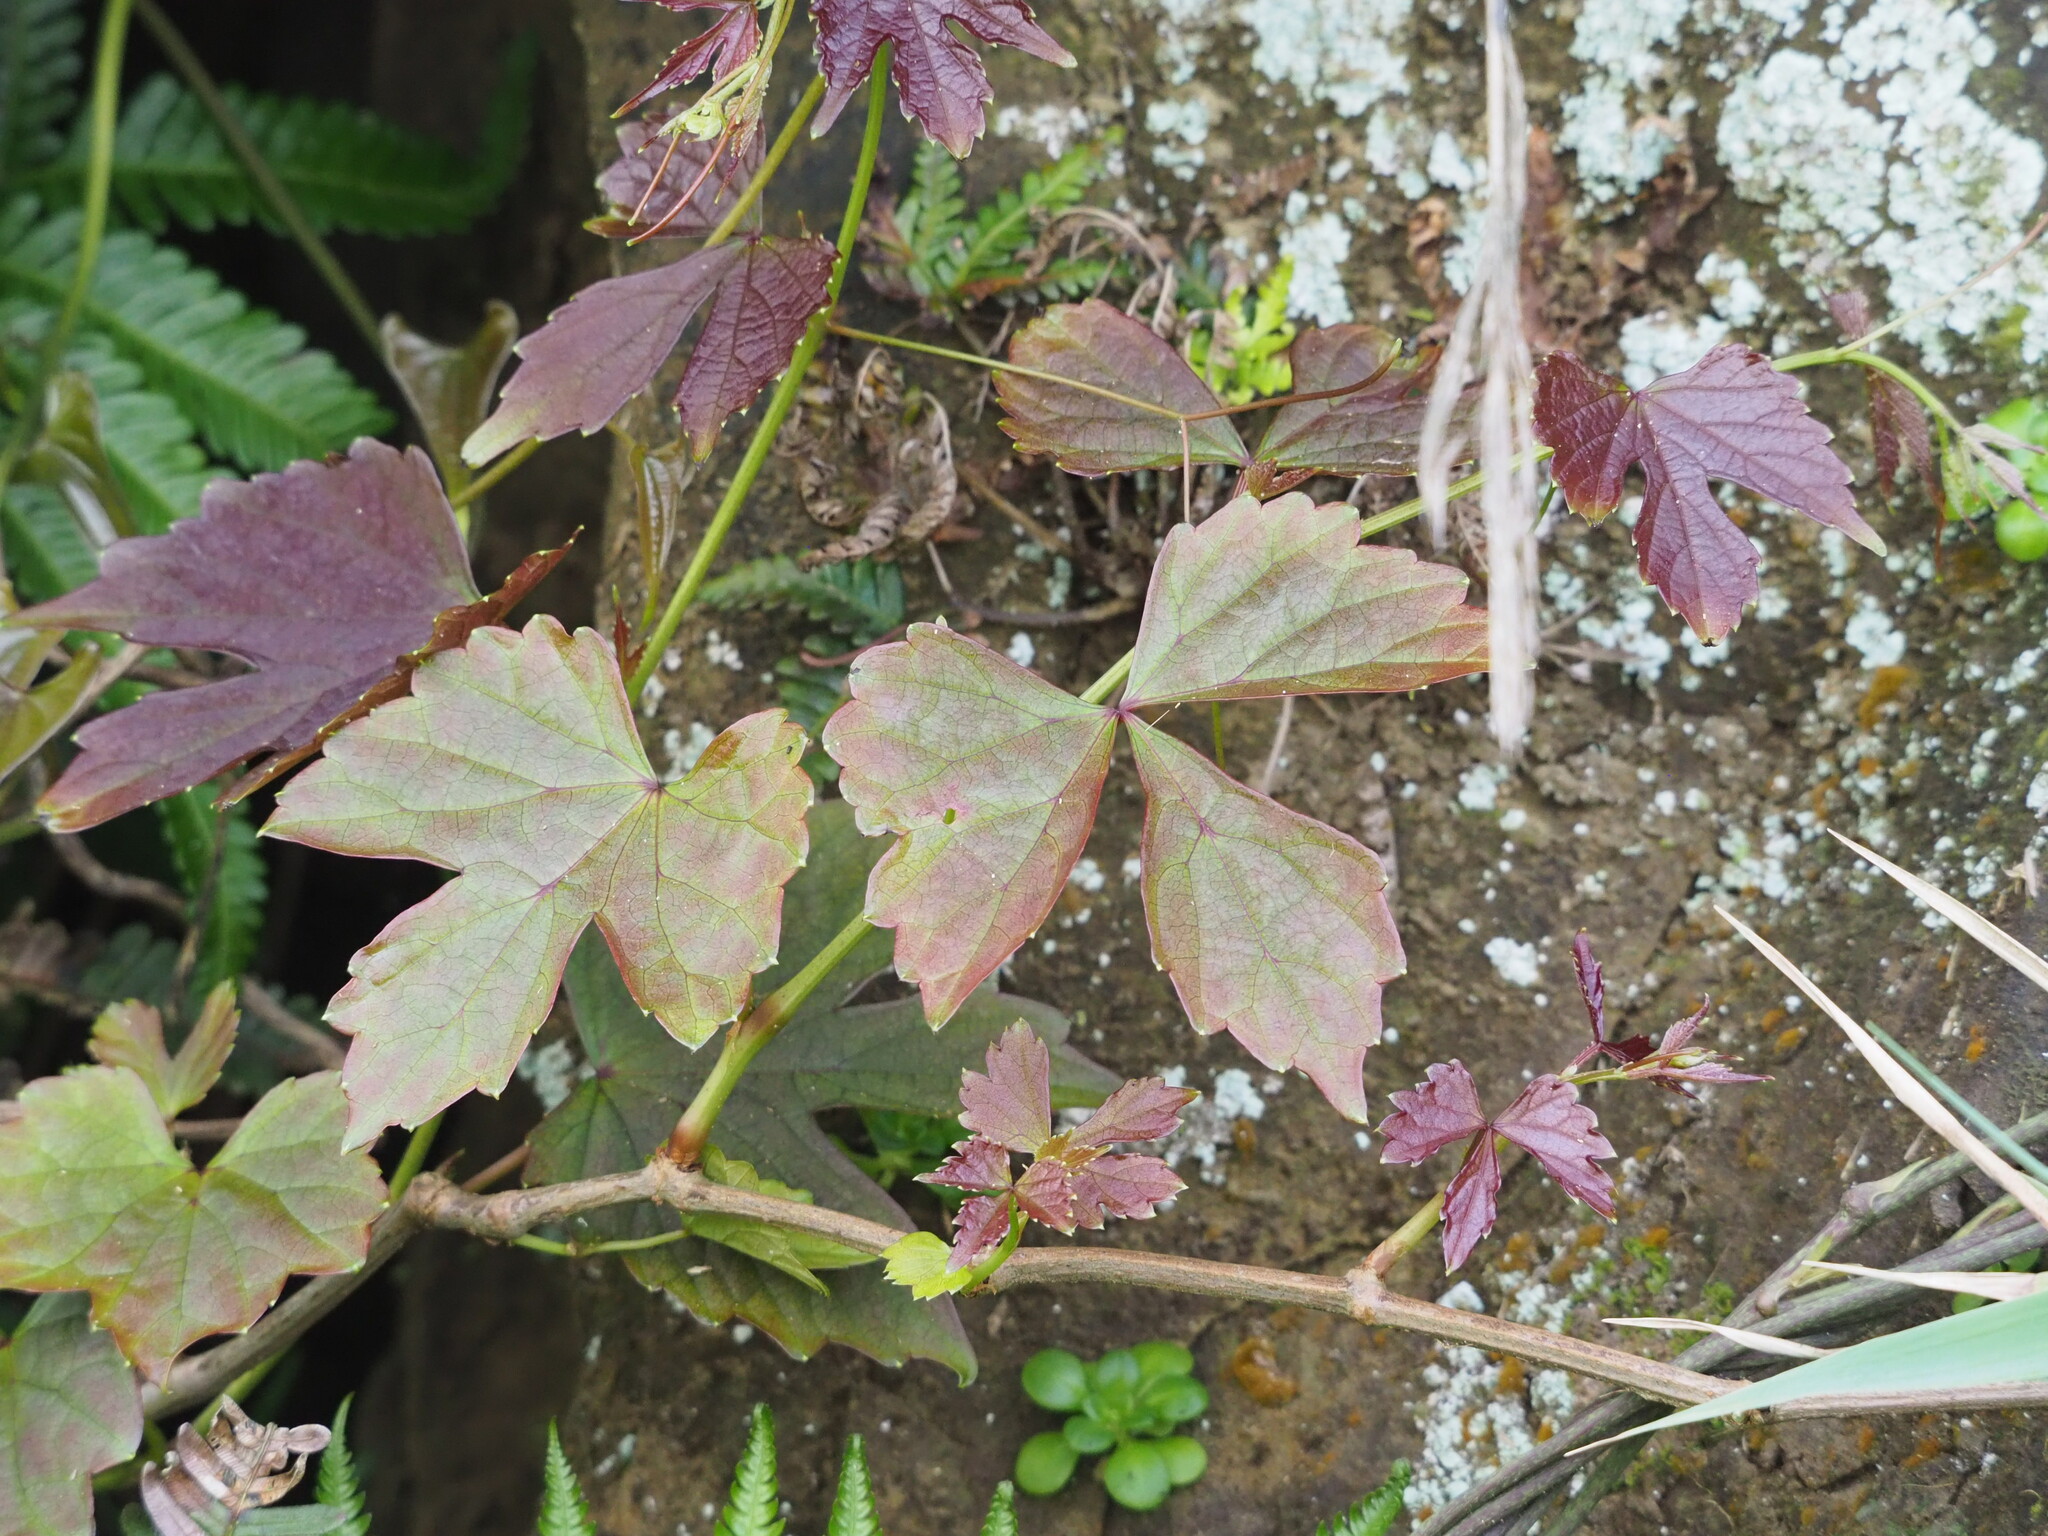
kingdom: Plantae
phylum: Tracheophyta
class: Magnoliopsida
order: Vitales
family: Vitaceae
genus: Ampelopsis
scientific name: Ampelopsis glandulosa
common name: Amur peppervine
